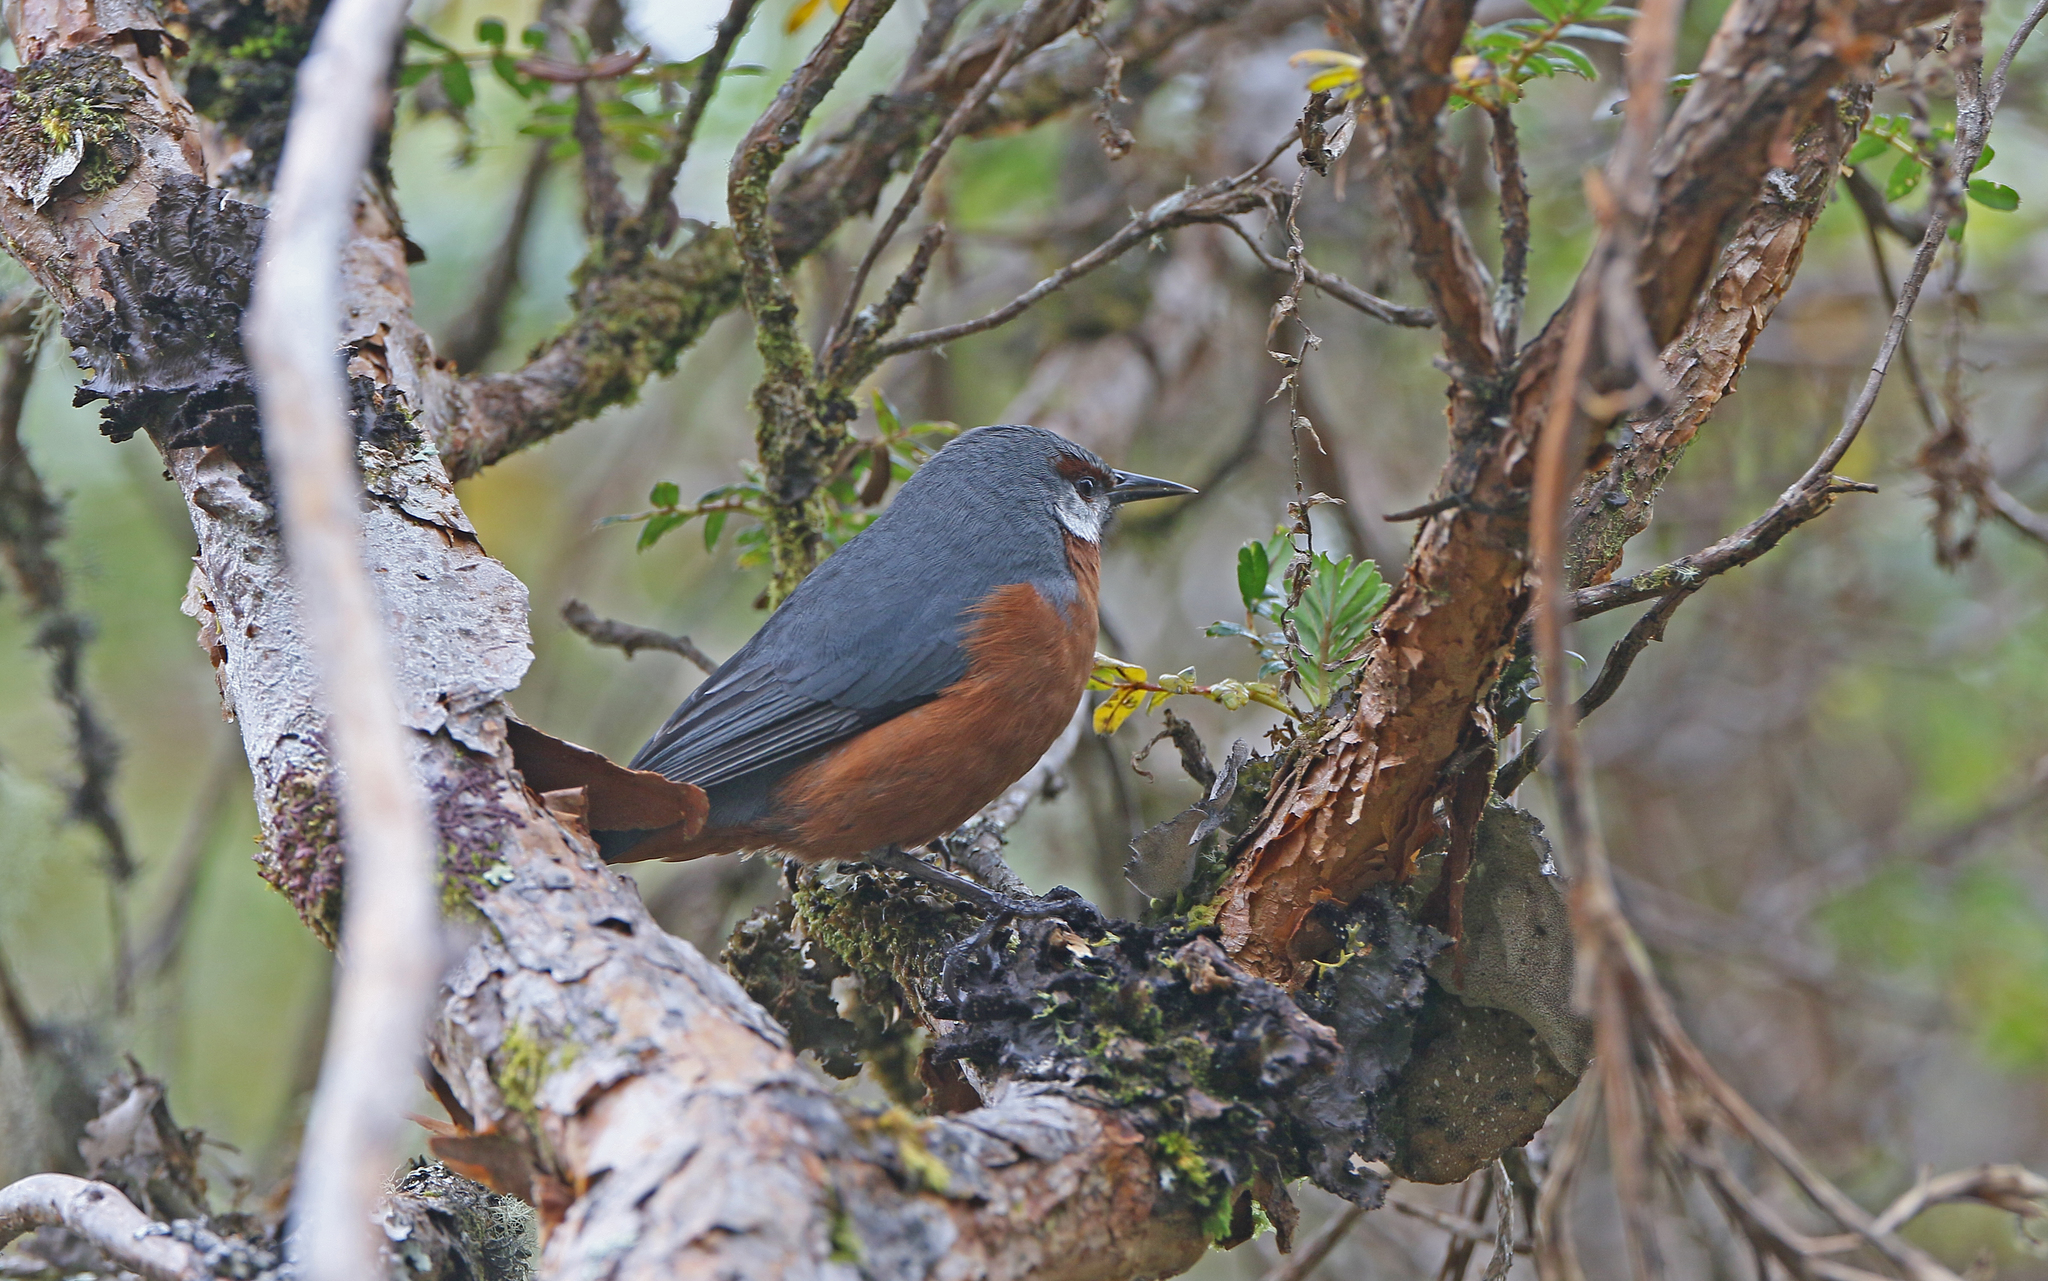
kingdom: Animalia
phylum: Chordata
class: Aves
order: Passeriformes
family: Thraupidae
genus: Conirostrum
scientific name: Conirostrum binghami
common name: Giant conebill
